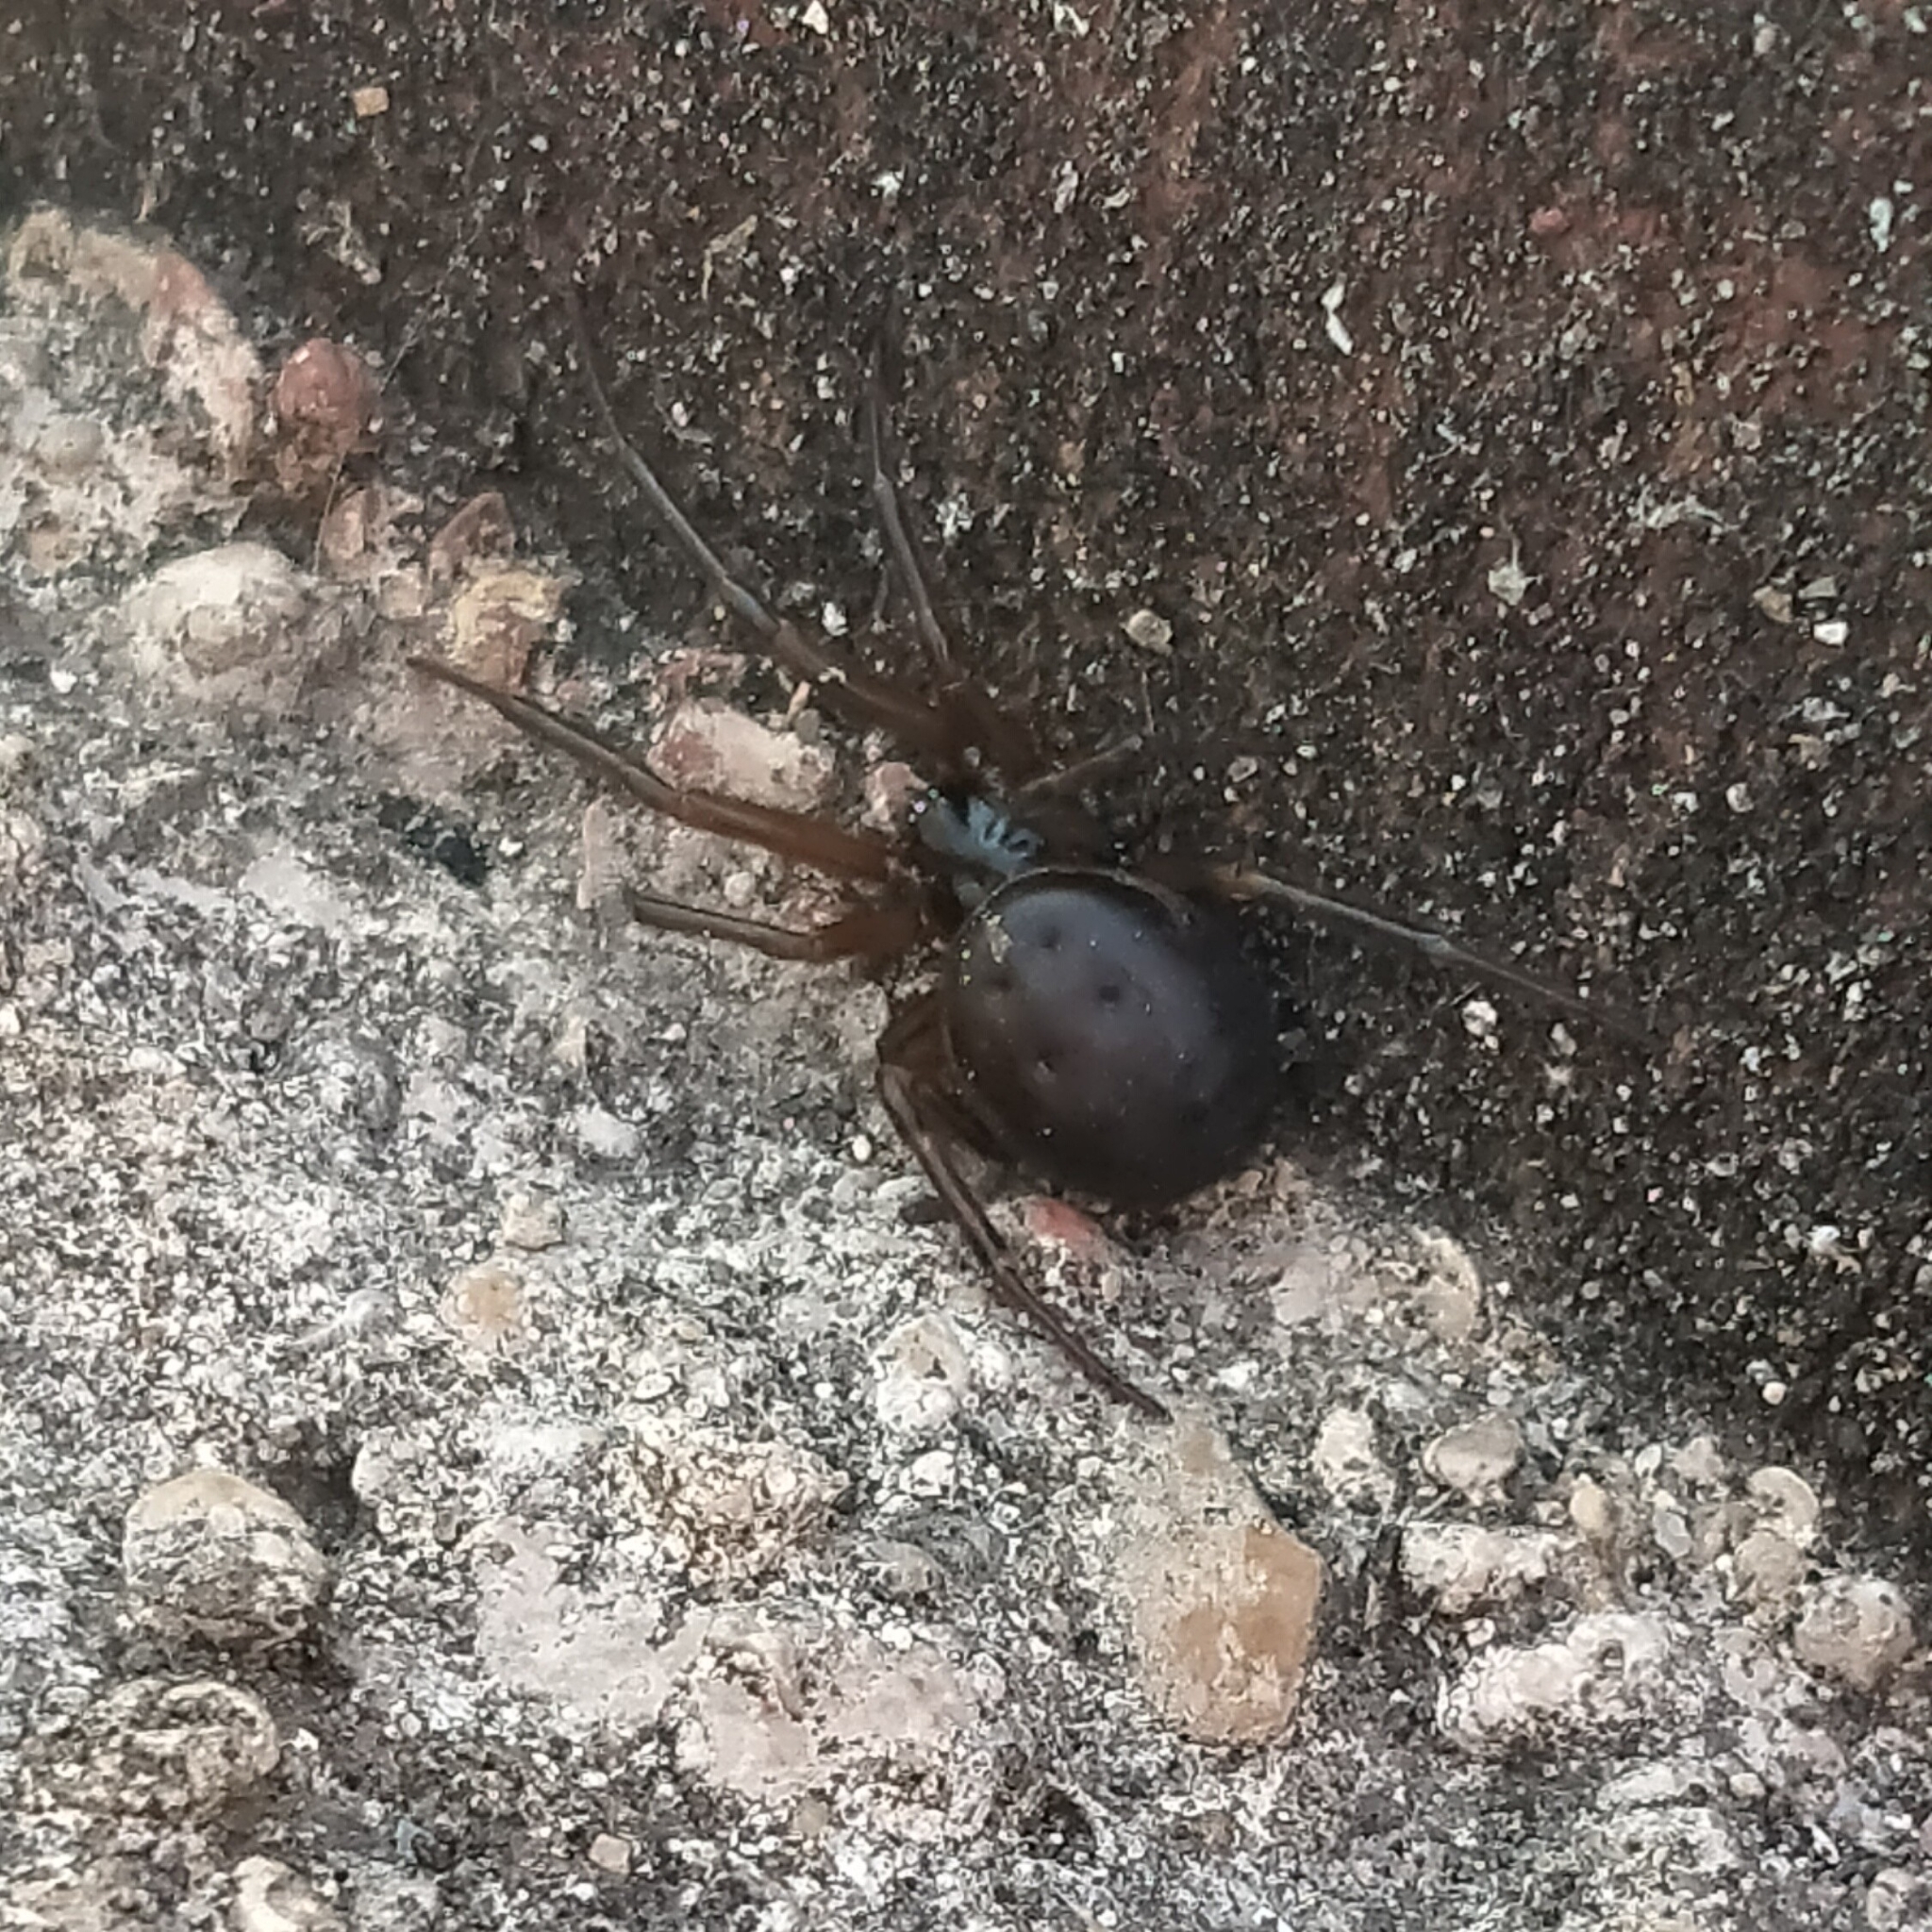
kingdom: Animalia
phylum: Arthropoda
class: Arachnida
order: Araneae
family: Theridiidae
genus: Steatoda
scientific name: Steatoda nobilis
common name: Cobweb weaver
